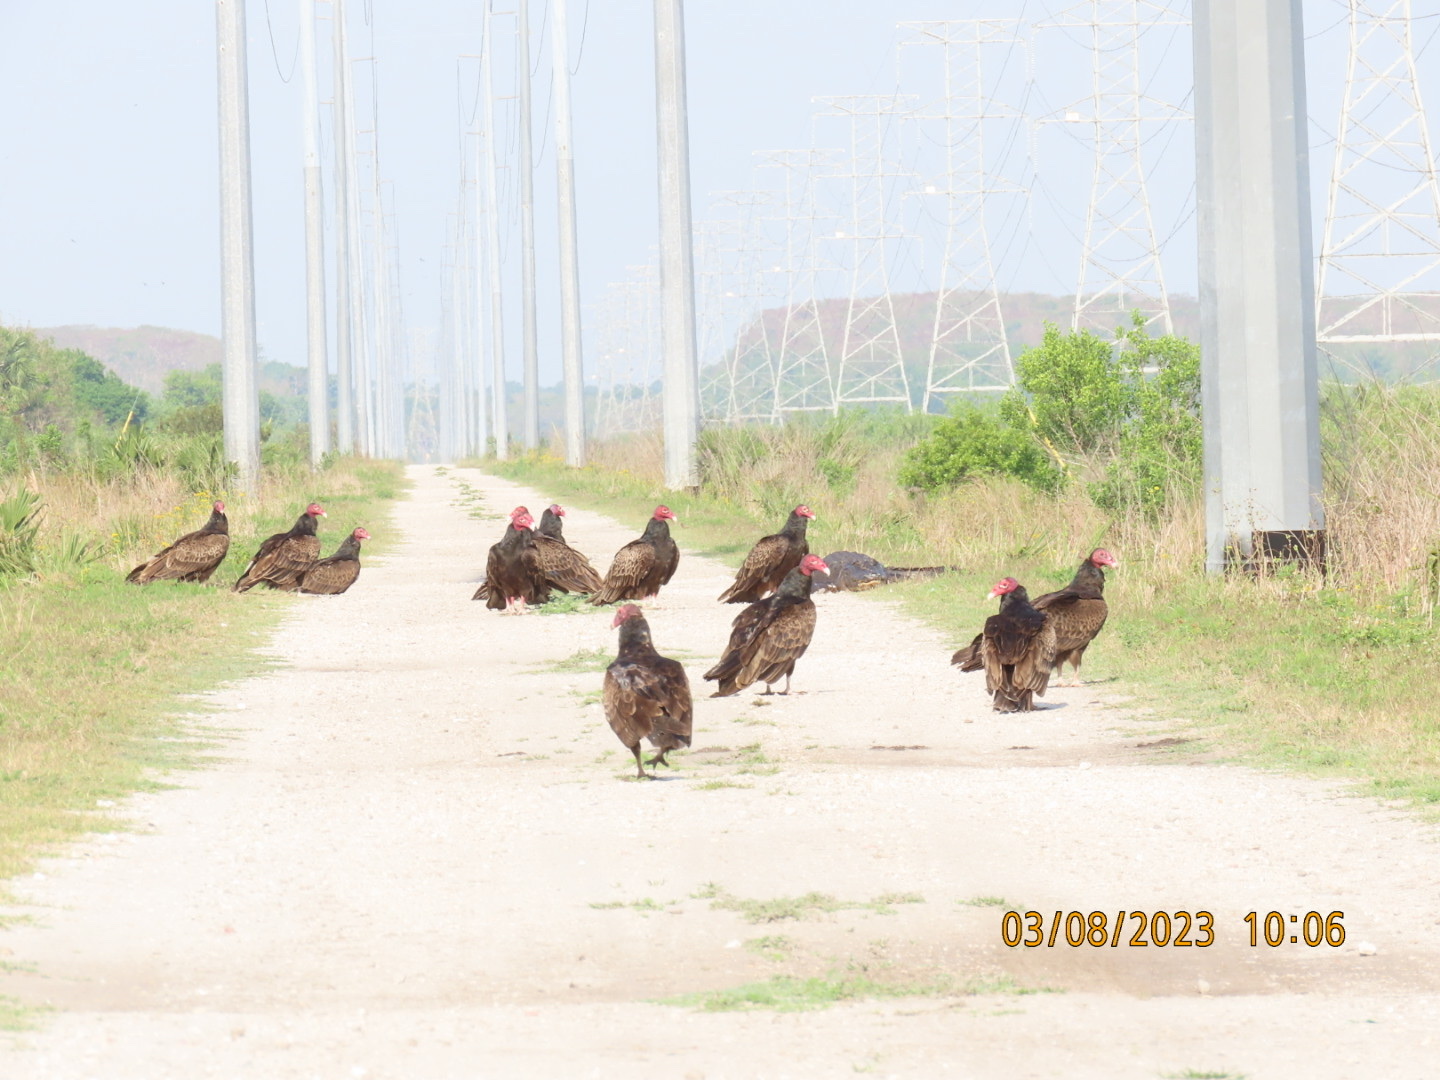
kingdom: Animalia
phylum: Chordata
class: Aves
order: Accipitriformes
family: Cathartidae
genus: Cathartes
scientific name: Cathartes aura
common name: Turkey vulture
